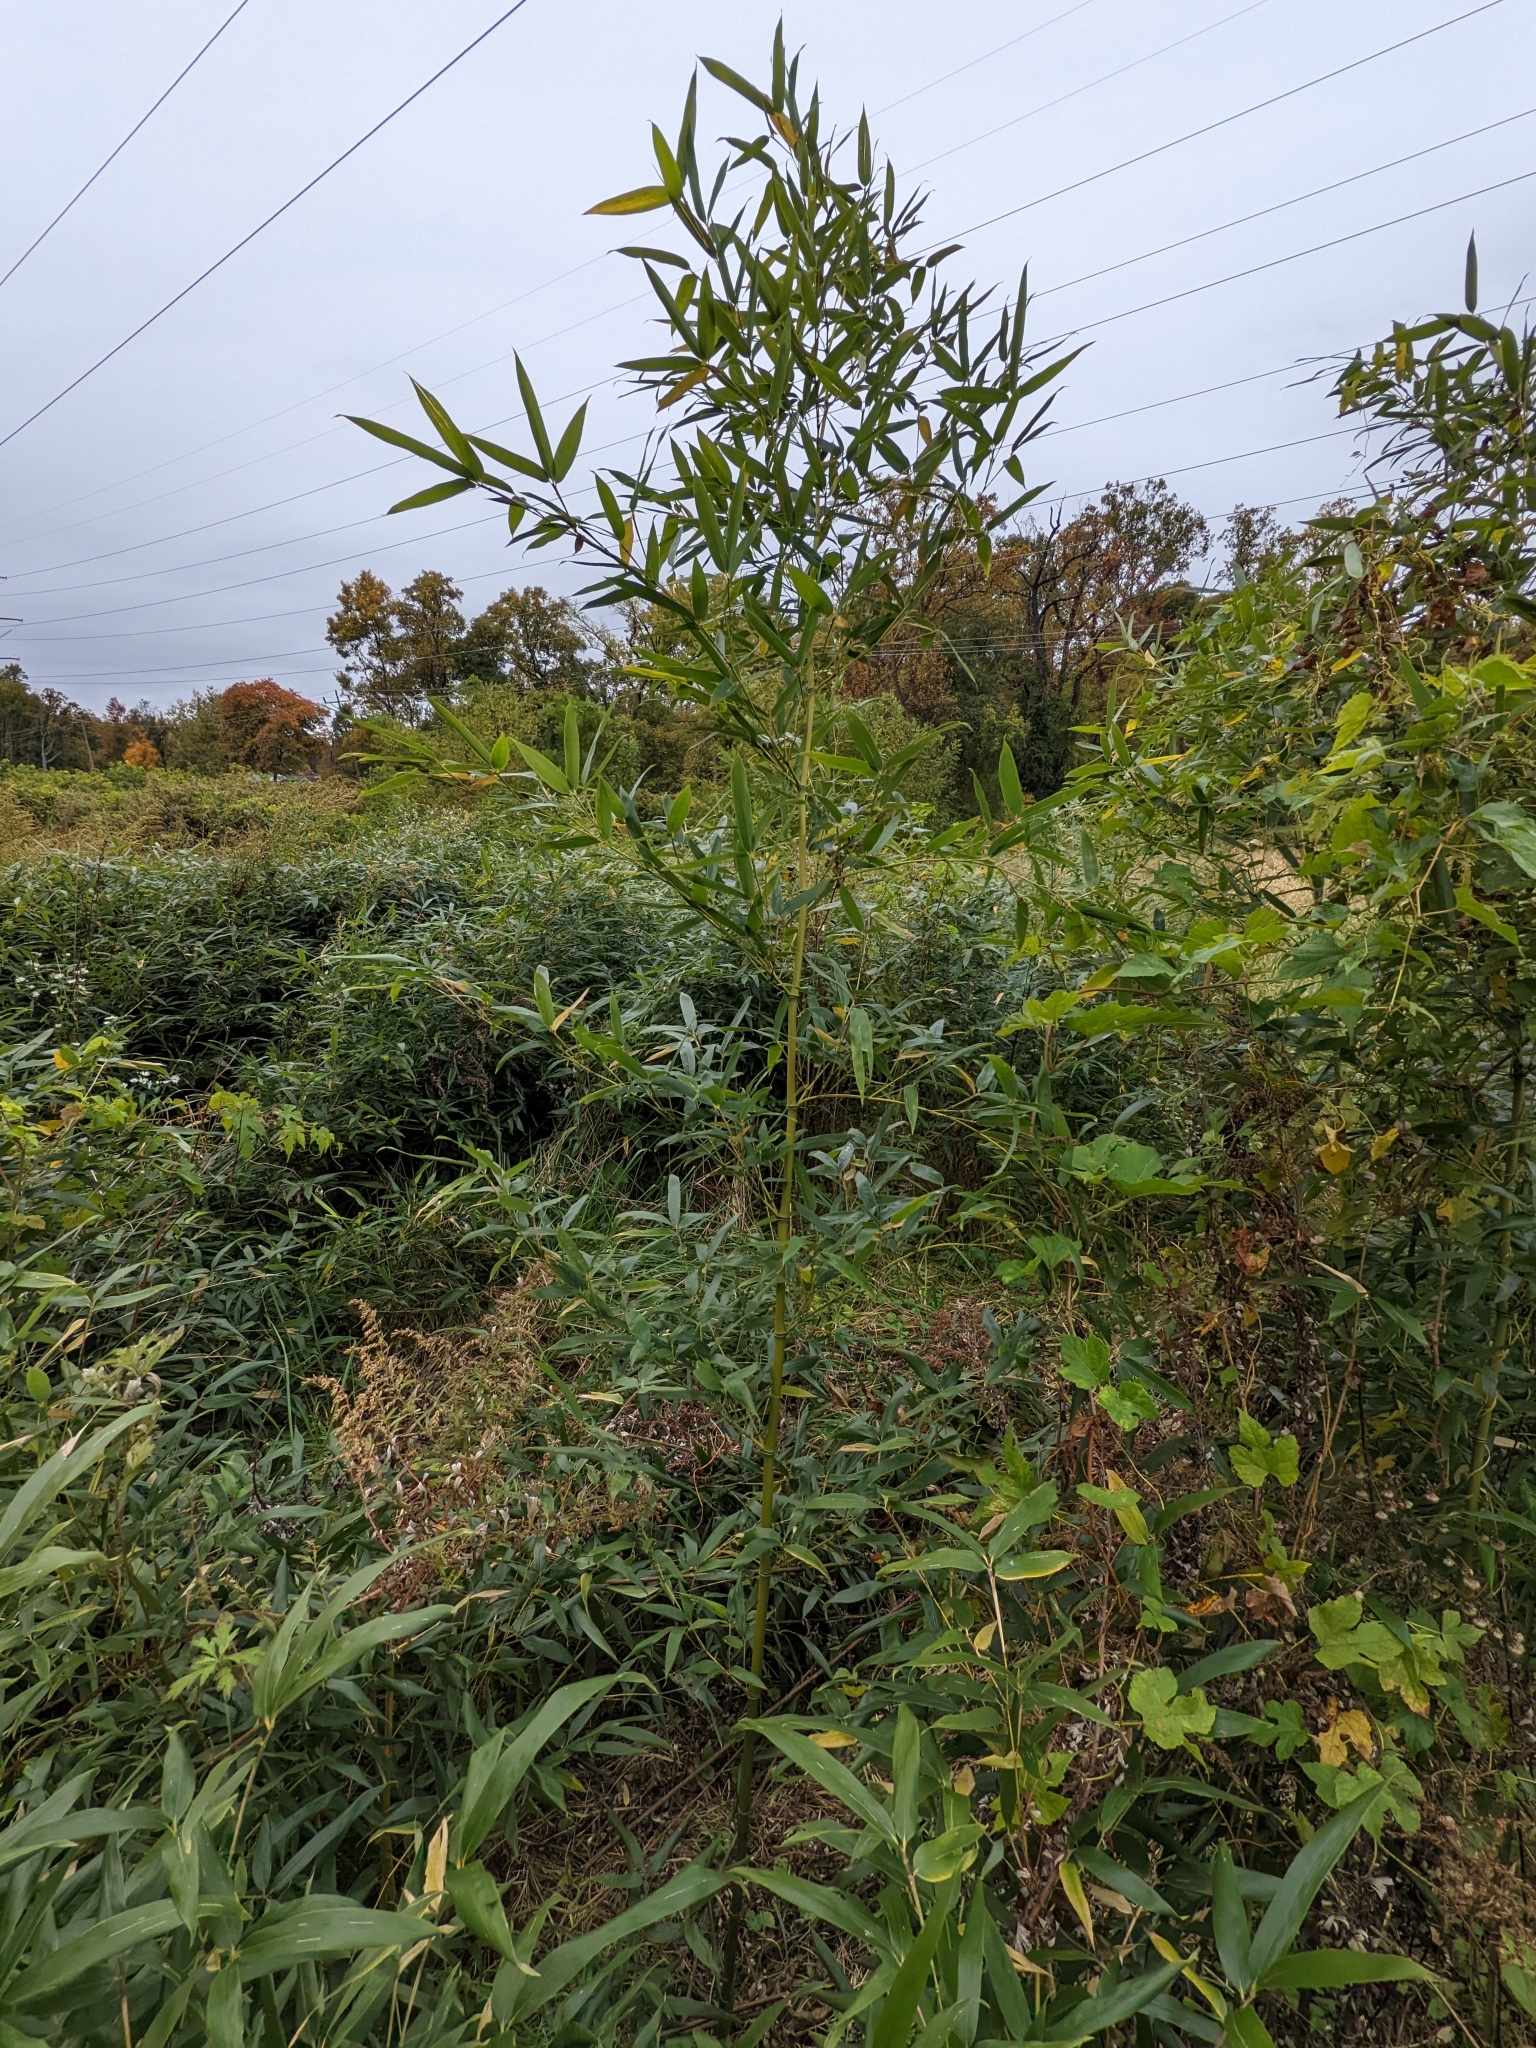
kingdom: Plantae
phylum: Tracheophyta
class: Liliopsida
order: Poales
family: Poaceae
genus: Phyllostachys
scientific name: Phyllostachys aureosulcata
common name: Yellow groove bamboo
